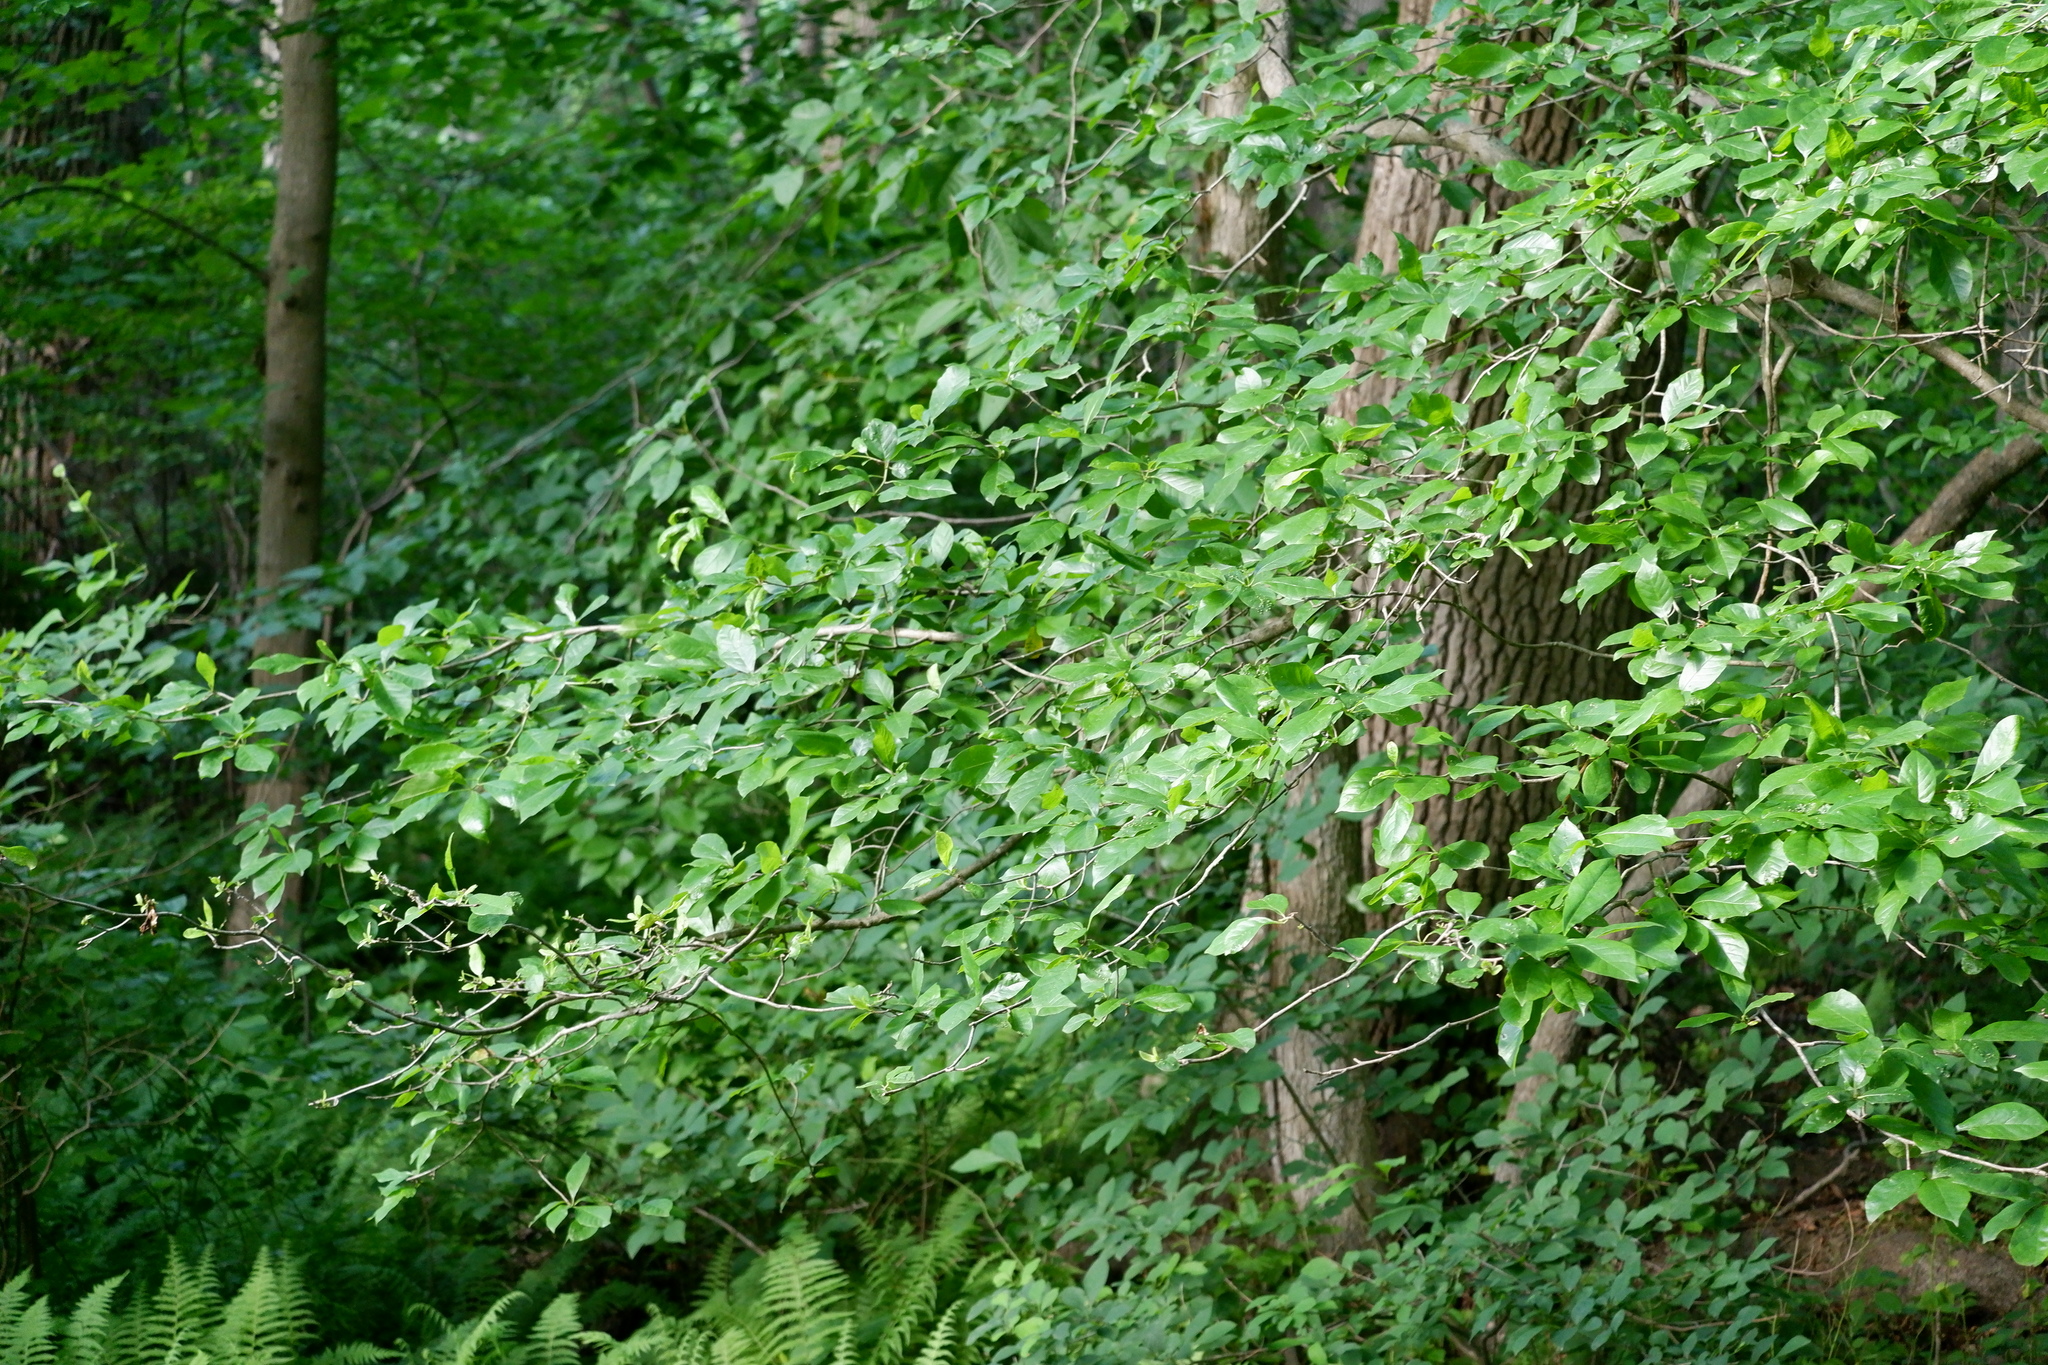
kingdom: Plantae
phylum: Tracheophyta
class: Magnoliopsida
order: Cornales
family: Nyssaceae
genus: Nyssa
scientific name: Nyssa sylvatica
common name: Black tupelo
